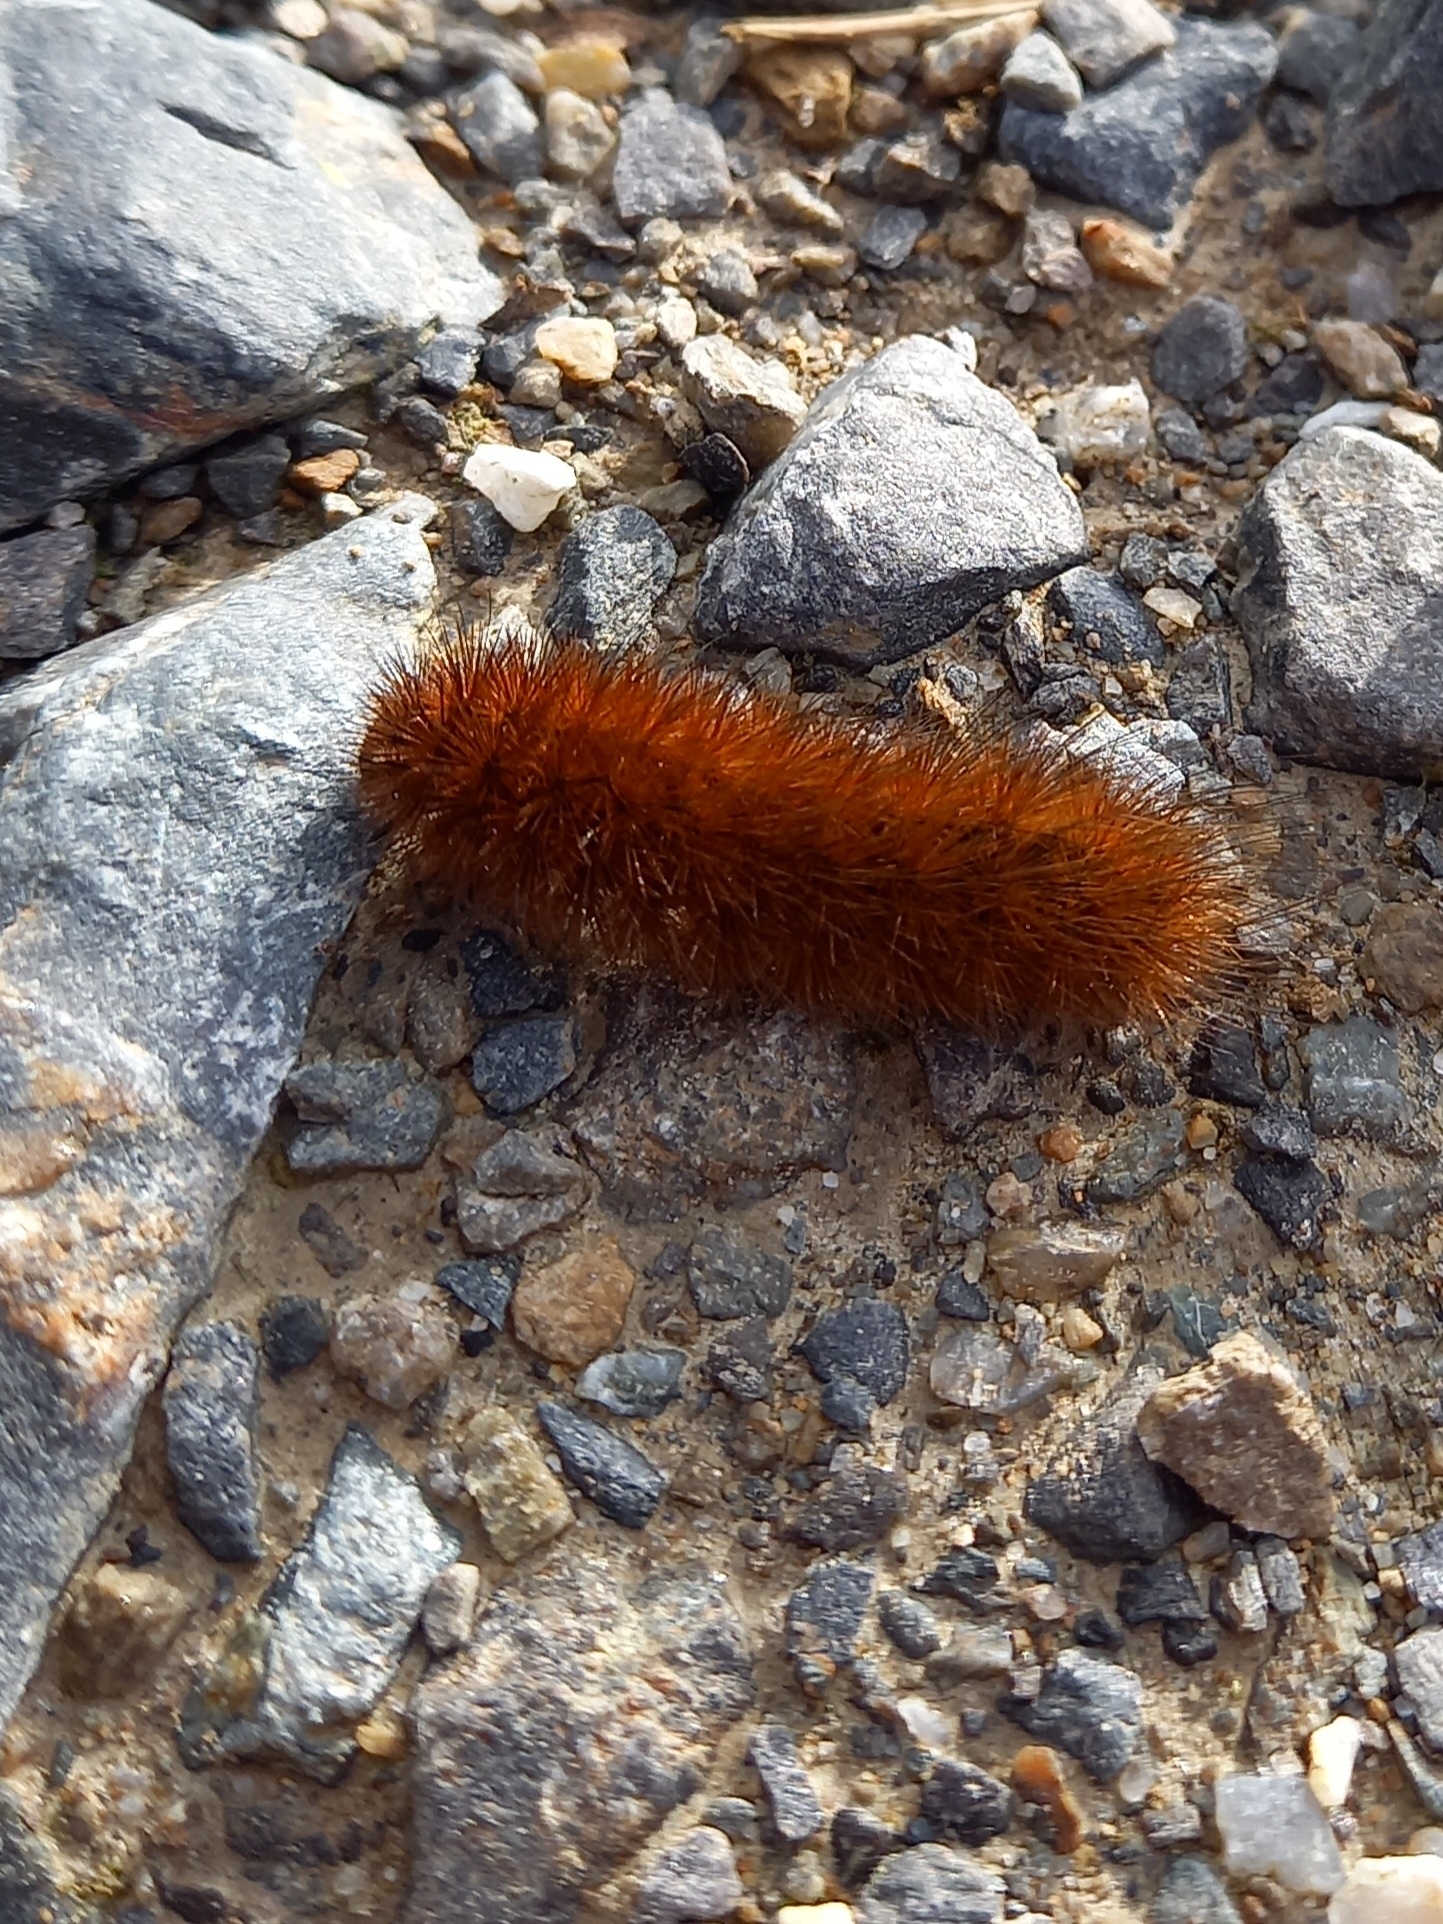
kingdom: Animalia
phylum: Arthropoda
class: Insecta
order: Lepidoptera
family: Erebidae
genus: Phragmatobia
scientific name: Phragmatobia fuliginosa
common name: Ruby tiger
